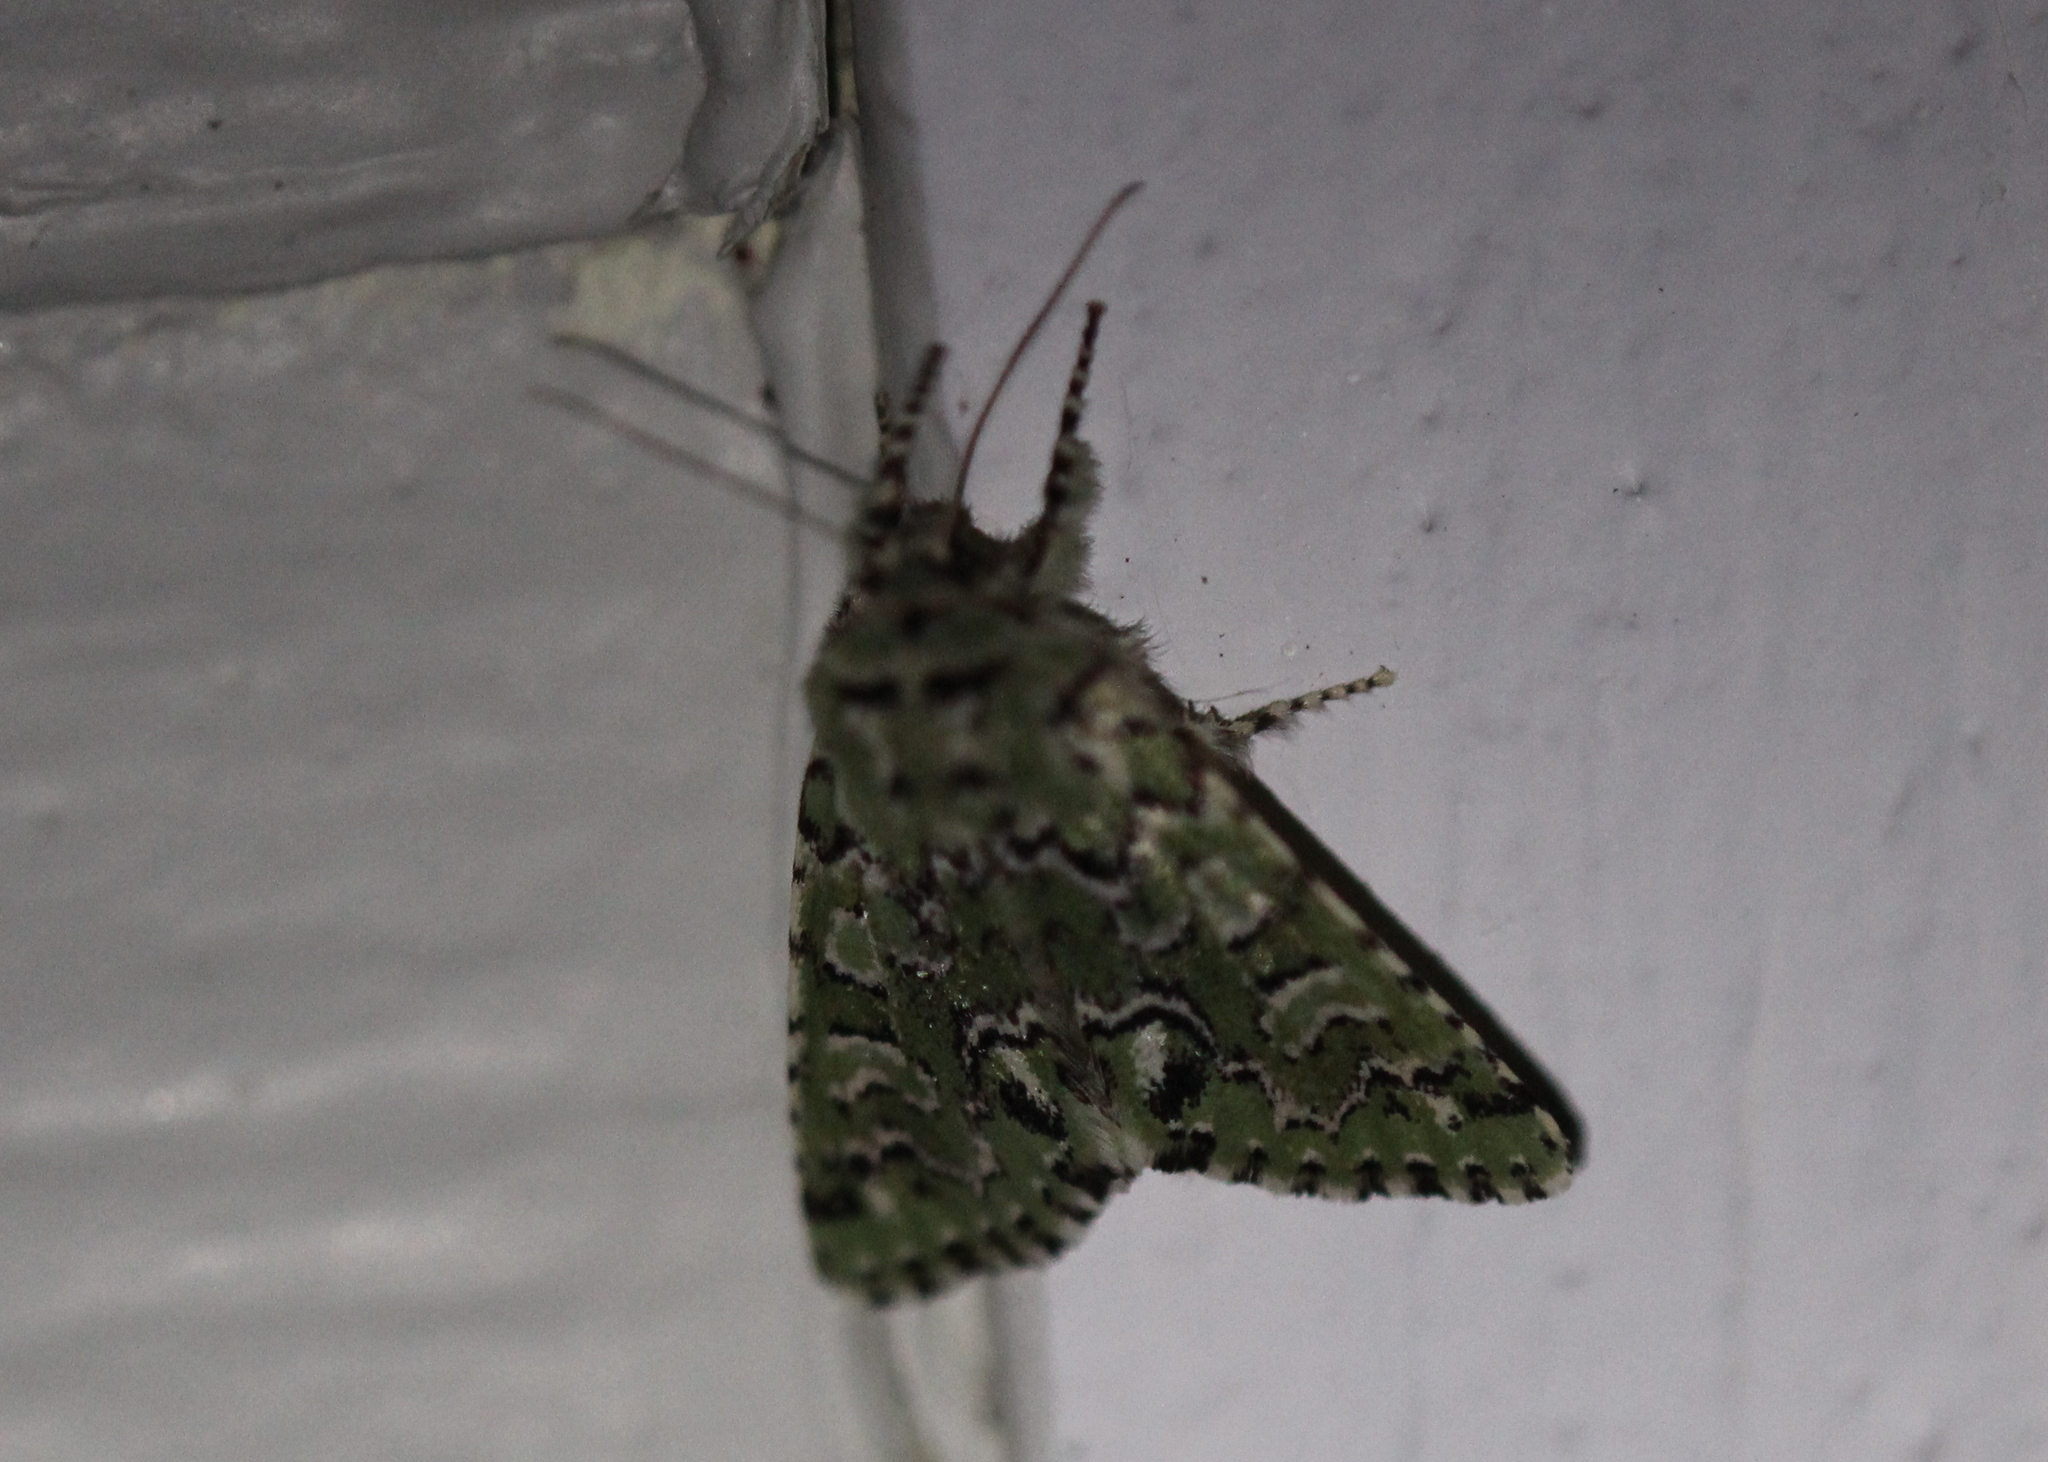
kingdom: Animalia
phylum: Arthropoda
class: Insecta
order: Lepidoptera
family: Noctuidae
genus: Feralia
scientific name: Feralia jocosa
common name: Joker
